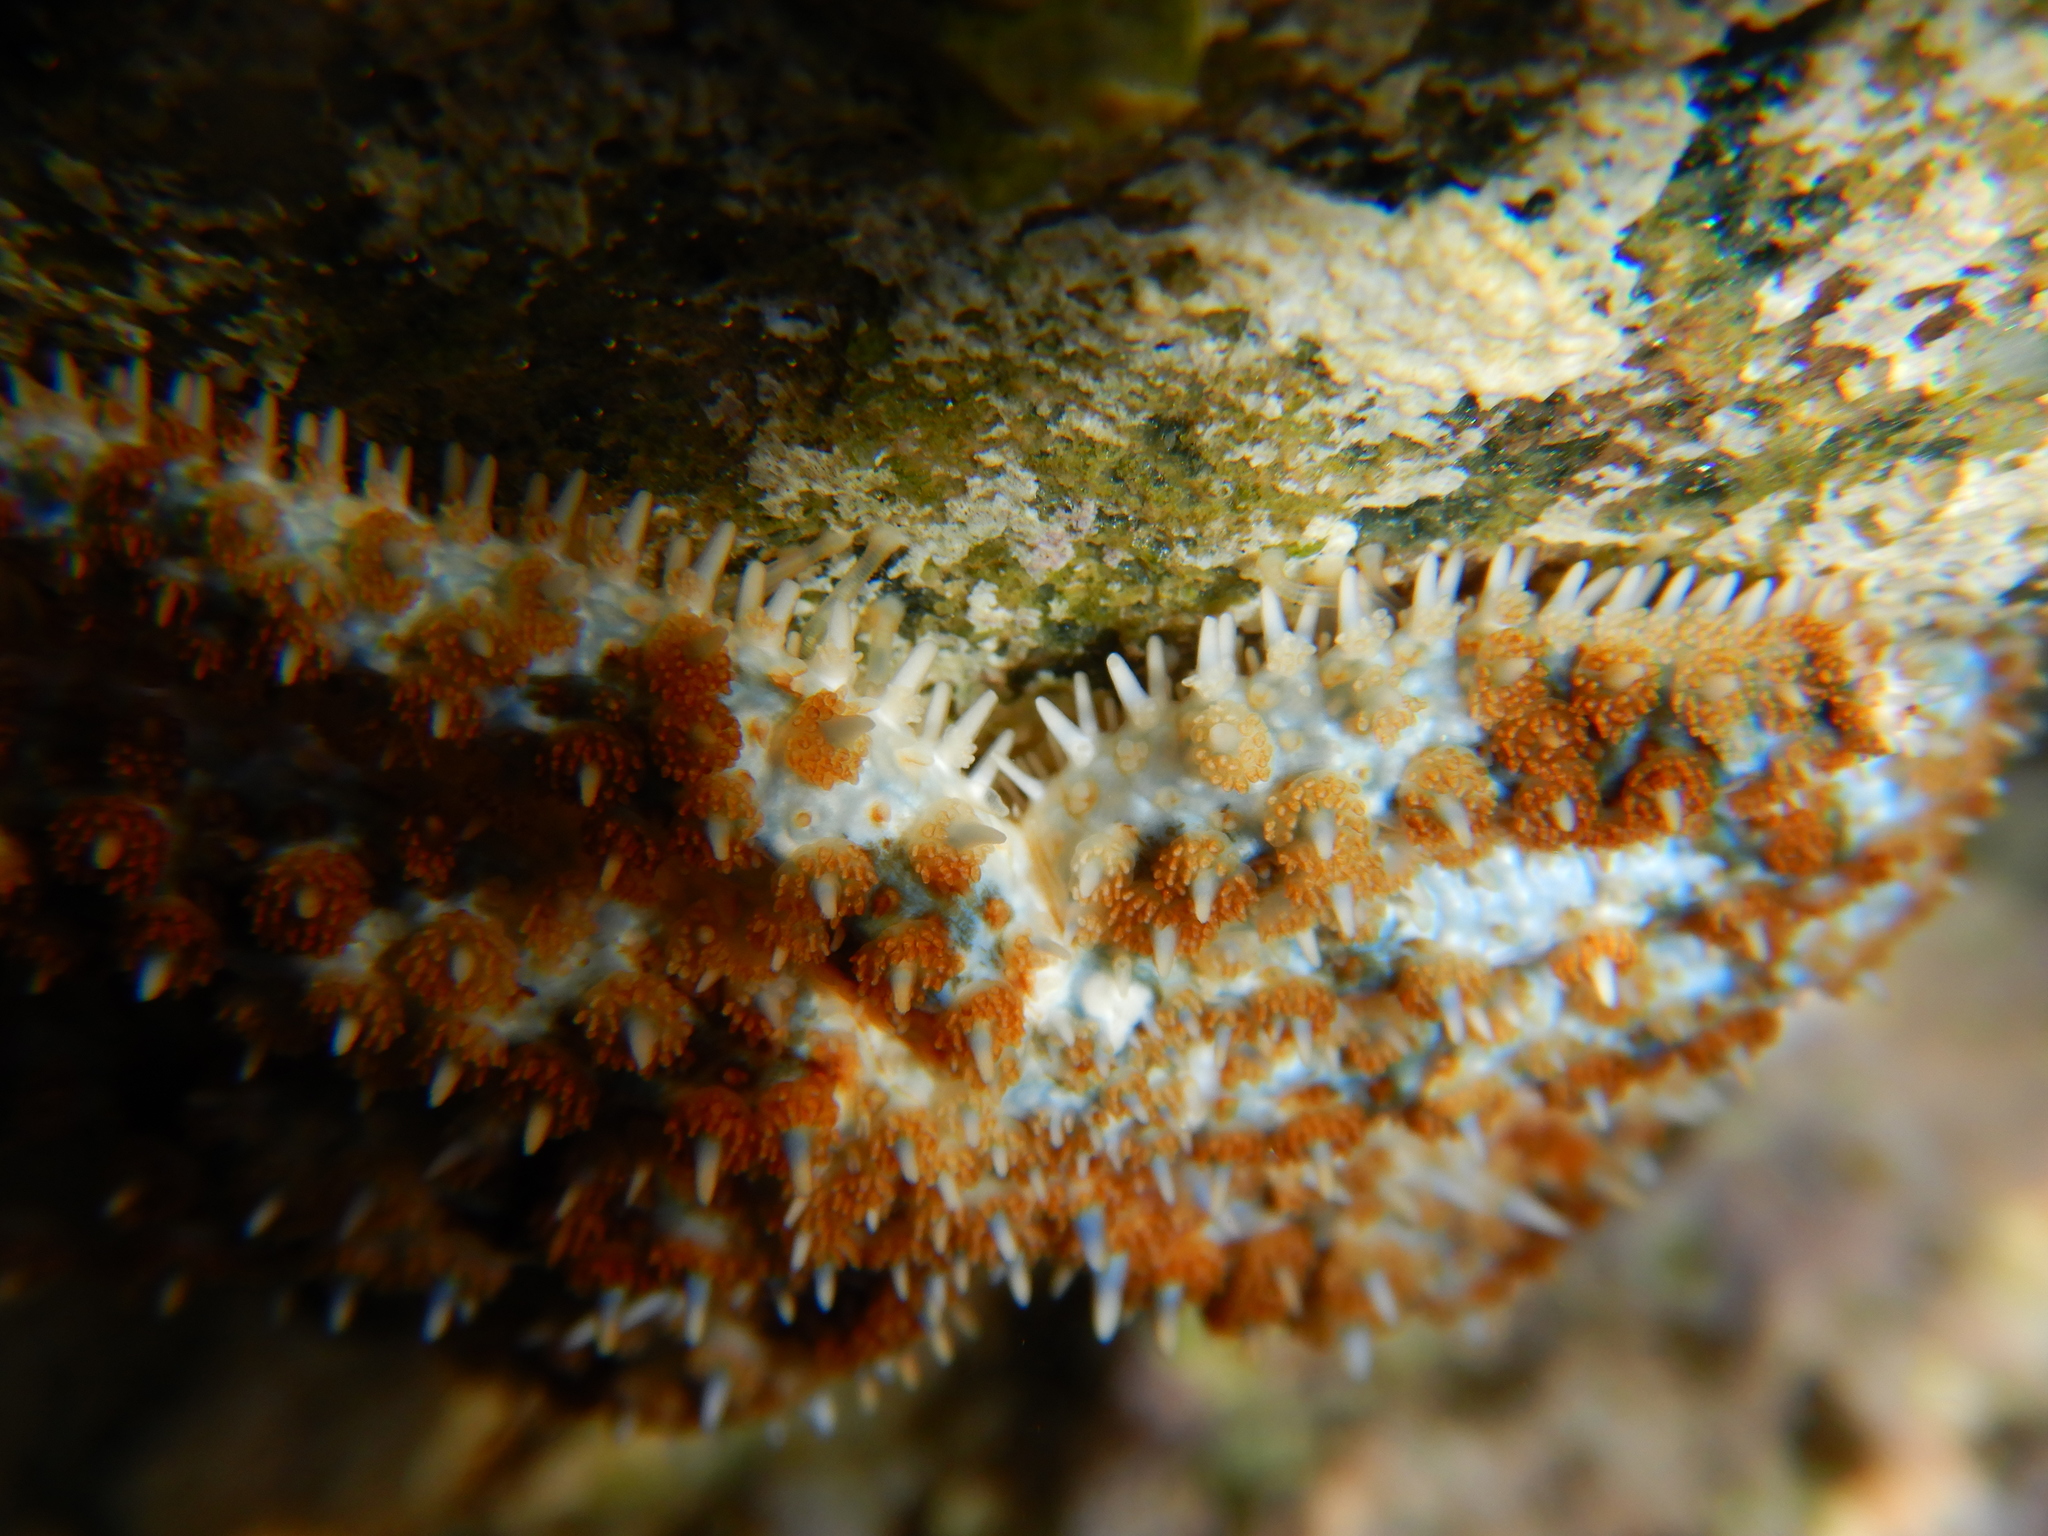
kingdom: Animalia
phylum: Echinodermata
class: Asteroidea
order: Forcipulatida
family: Asteriidae
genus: Coscinasterias
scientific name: Coscinasterias tenuispina
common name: Blue spiny starfish
